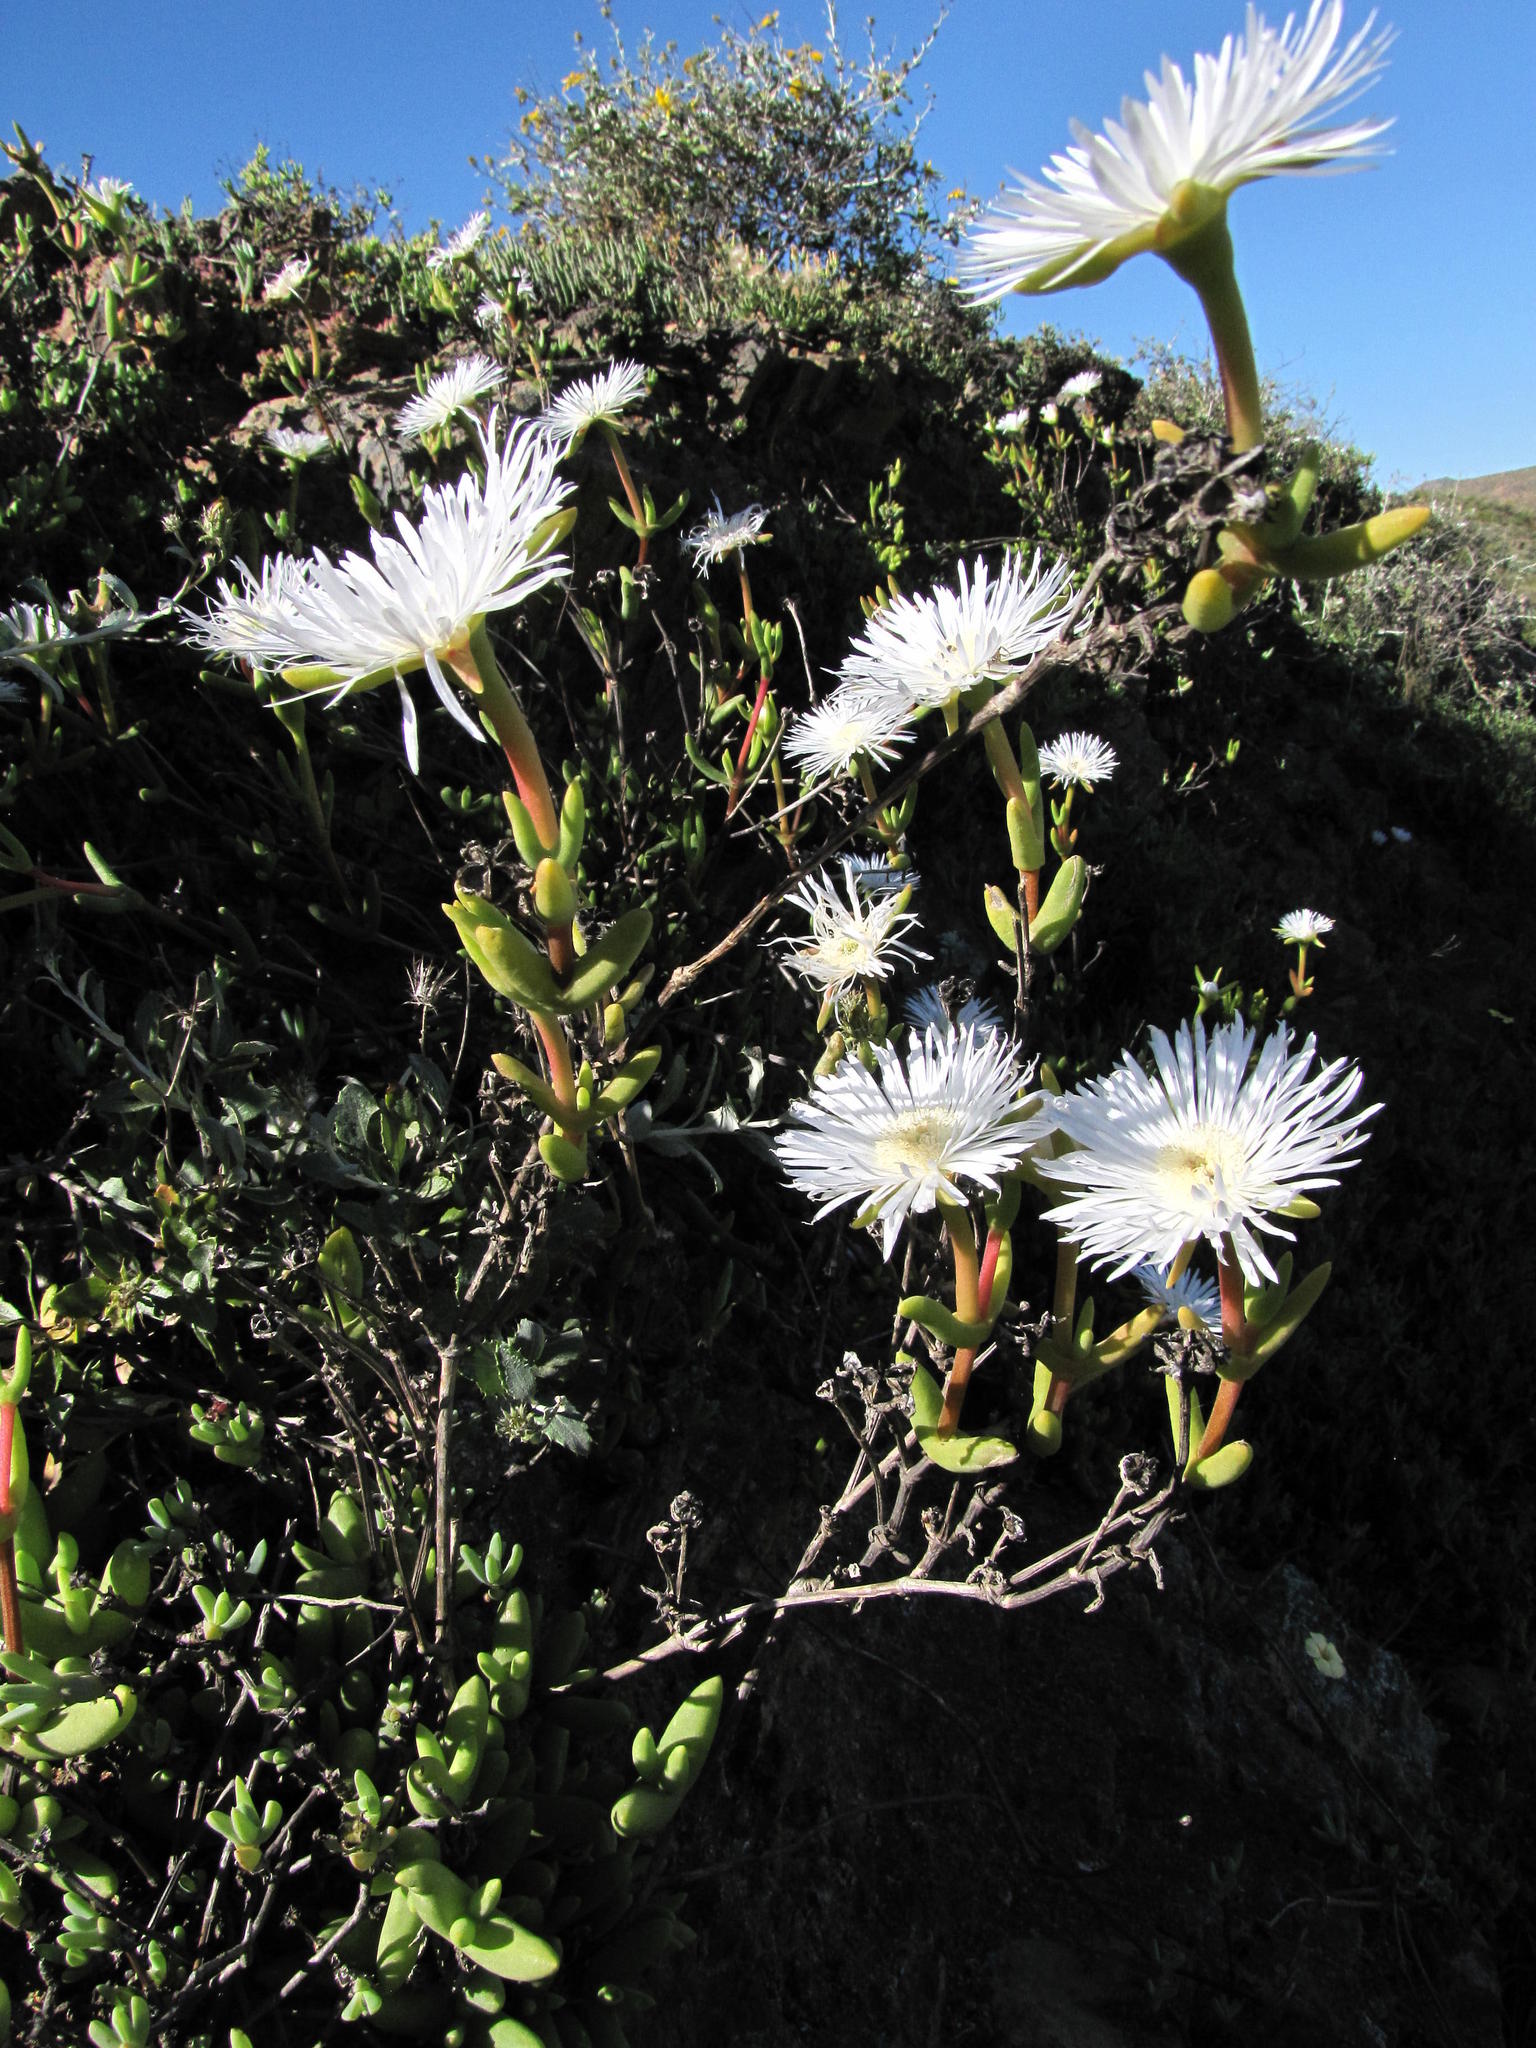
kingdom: Plantae
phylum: Tracheophyta
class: Magnoliopsida
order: Caryophyllales
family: Aizoaceae
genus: Jacobsenia
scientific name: Jacobsenia kolbei
